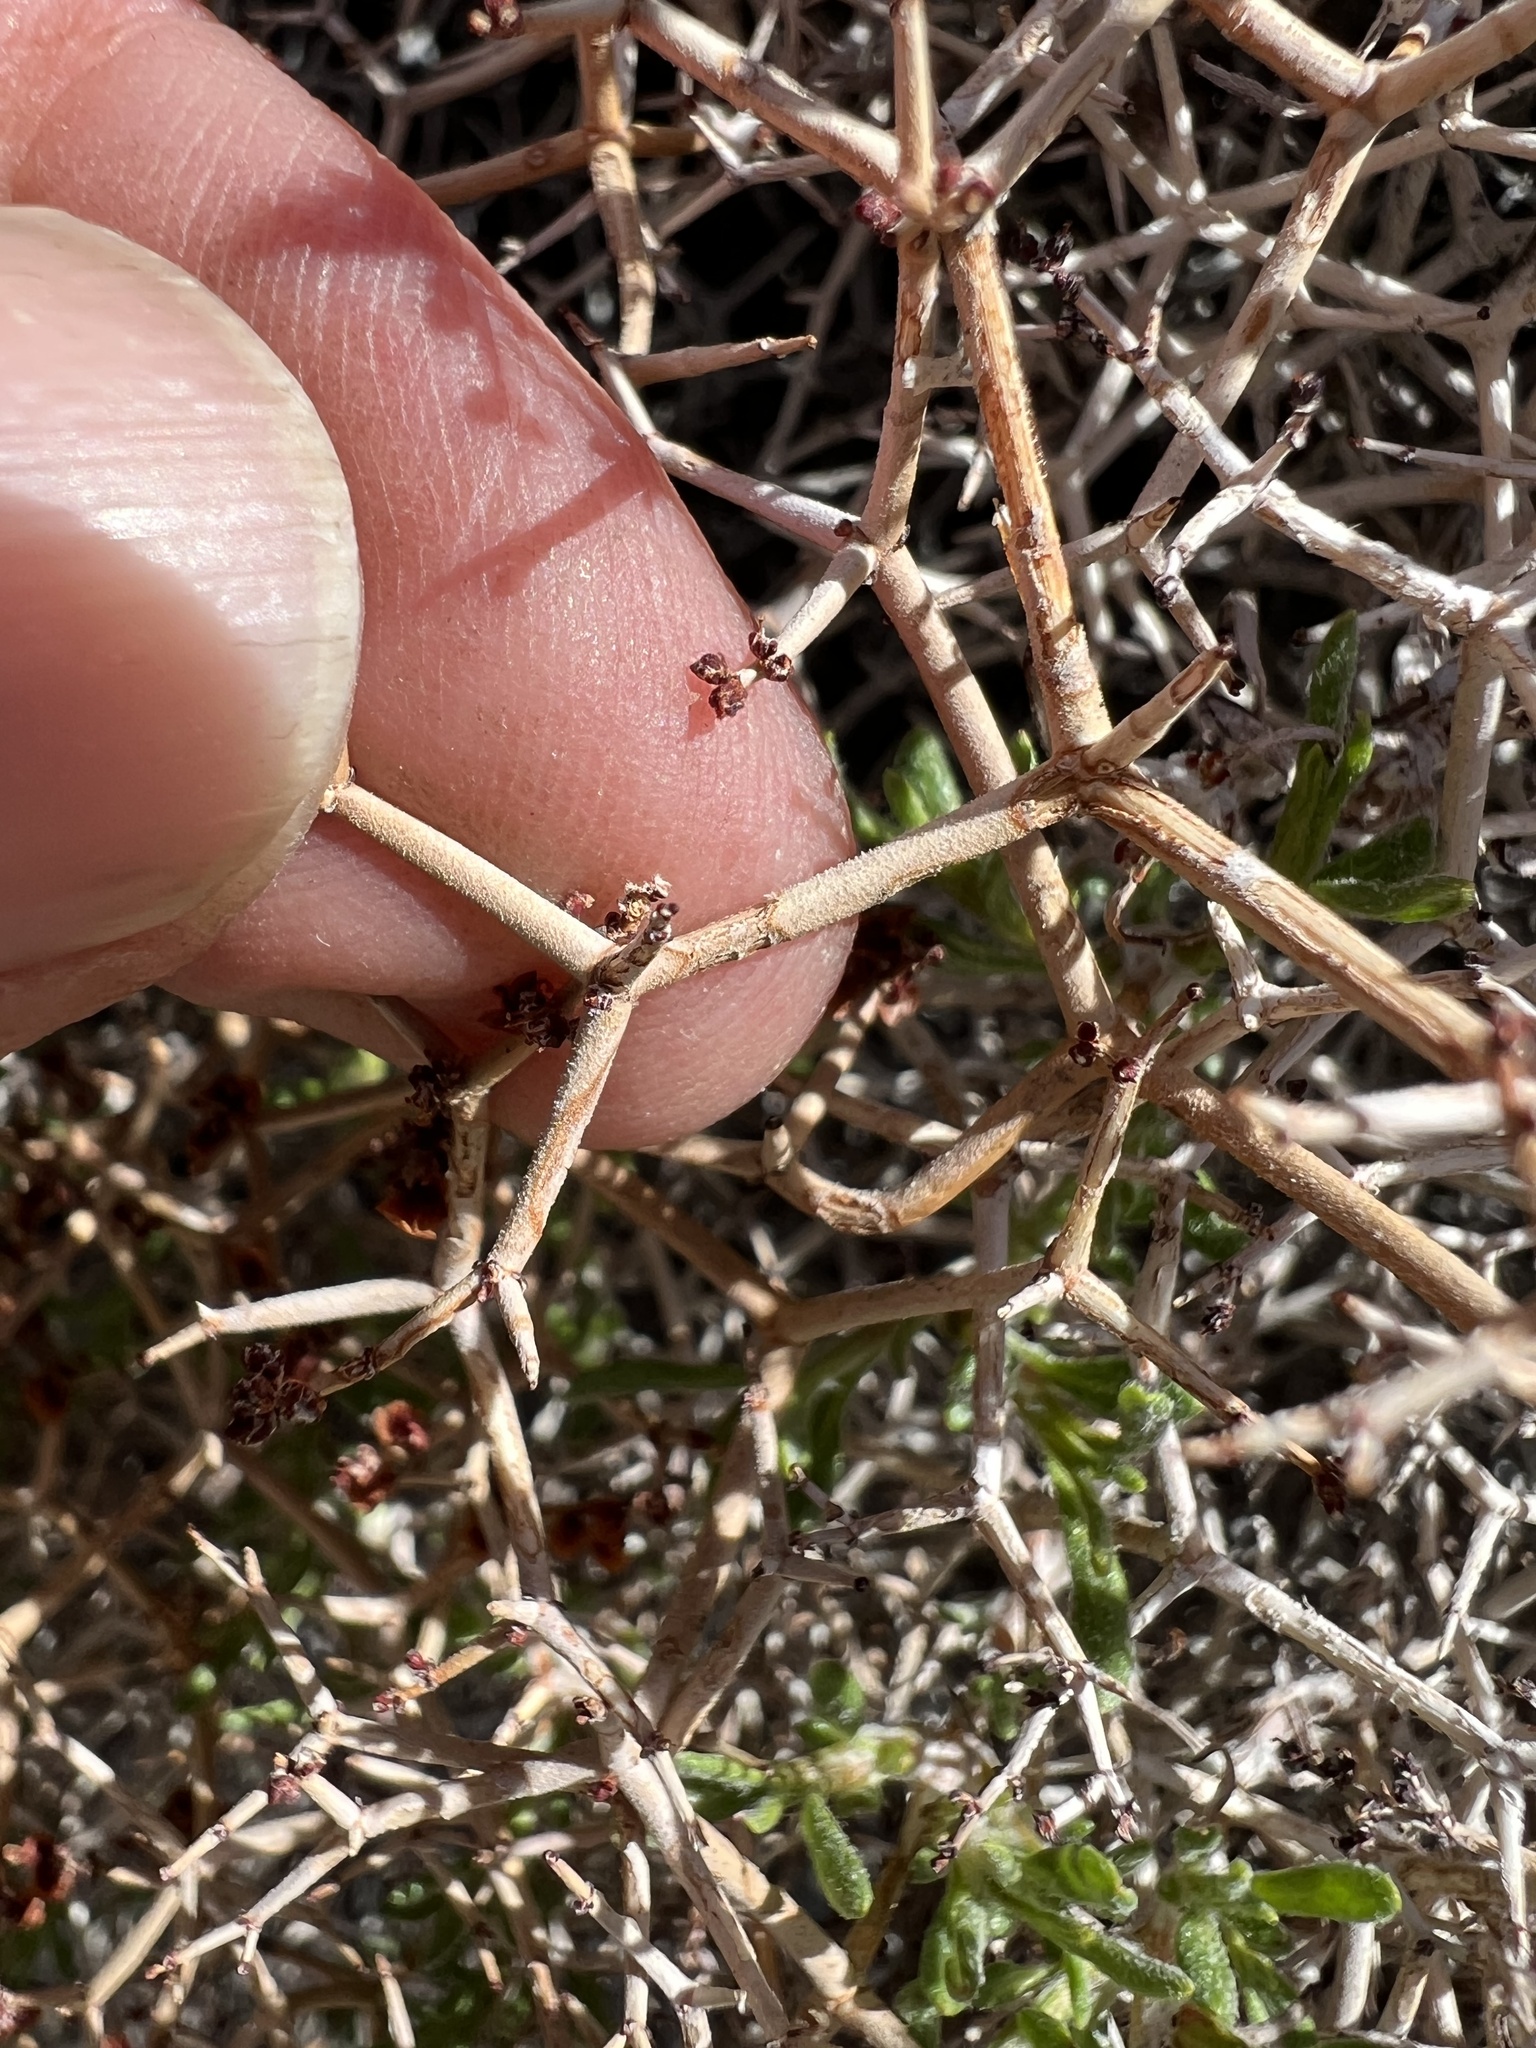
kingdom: Plantae
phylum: Tracheophyta
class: Magnoliopsida
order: Caryophyllales
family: Polygonaceae
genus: Eriogonum
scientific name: Eriogonum heermannii
